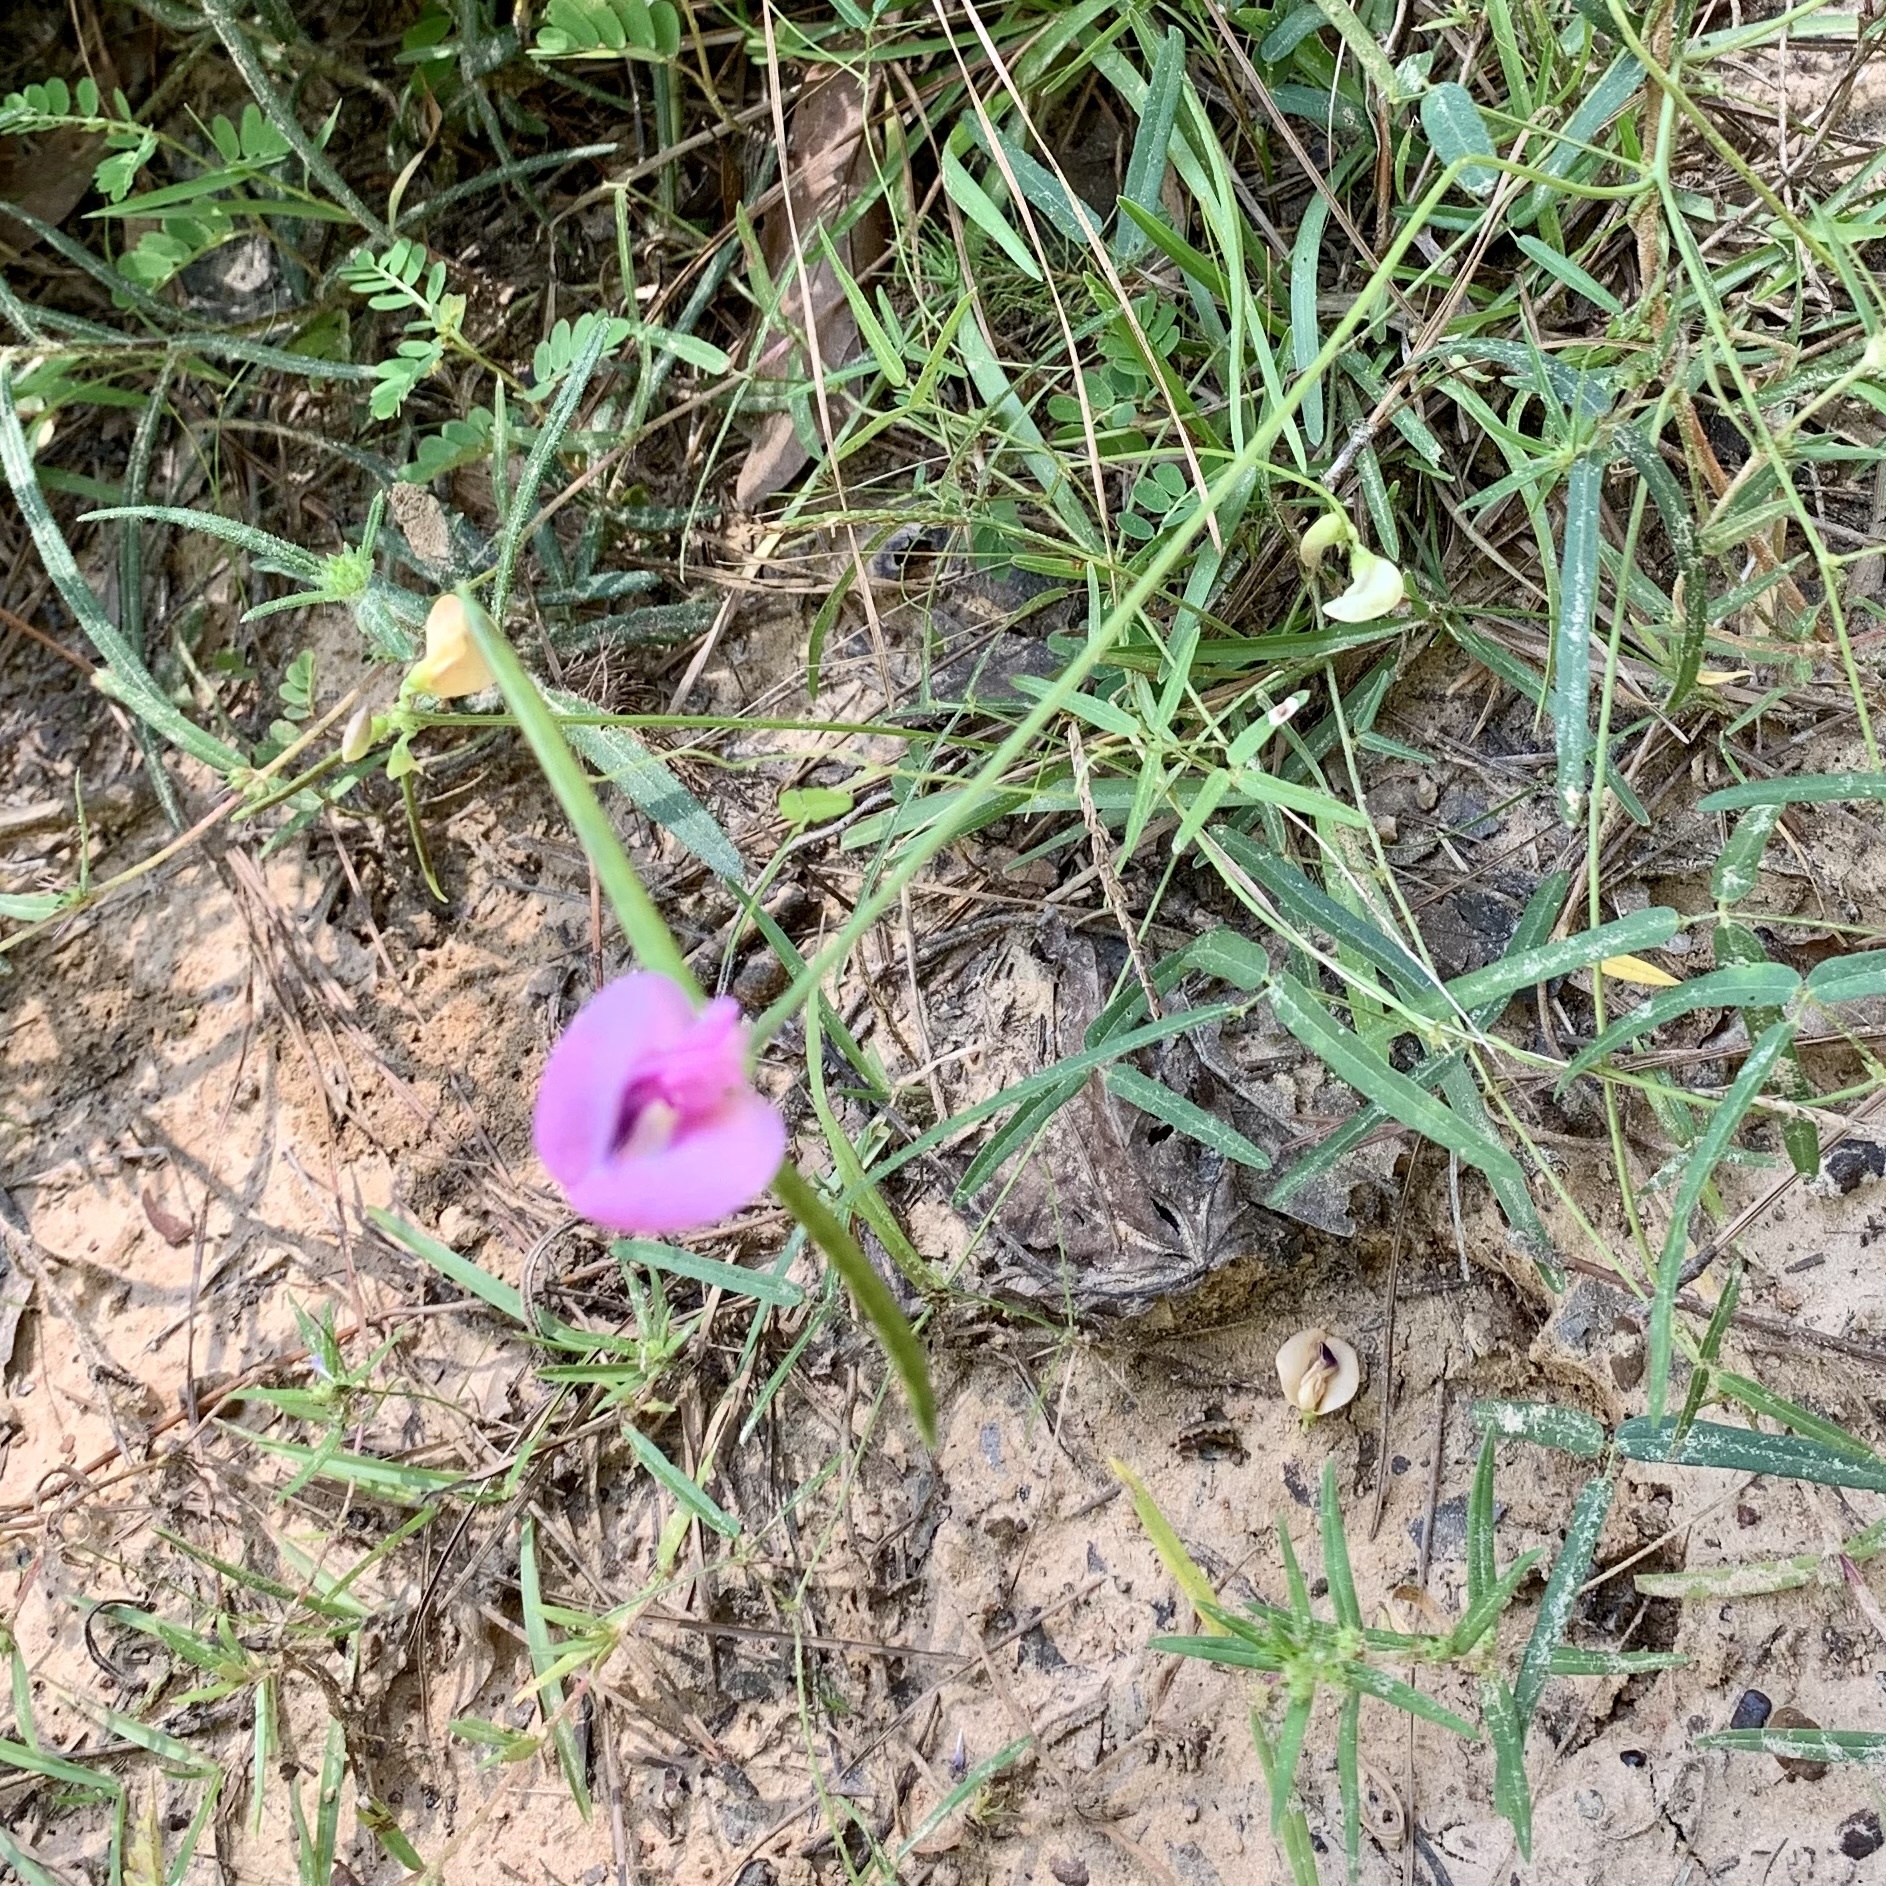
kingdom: Plantae
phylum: Tracheophyta
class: Magnoliopsida
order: Fabales
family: Fabaceae
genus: Strophostyles
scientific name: Strophostyles umbellata
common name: Perennial wild bean
